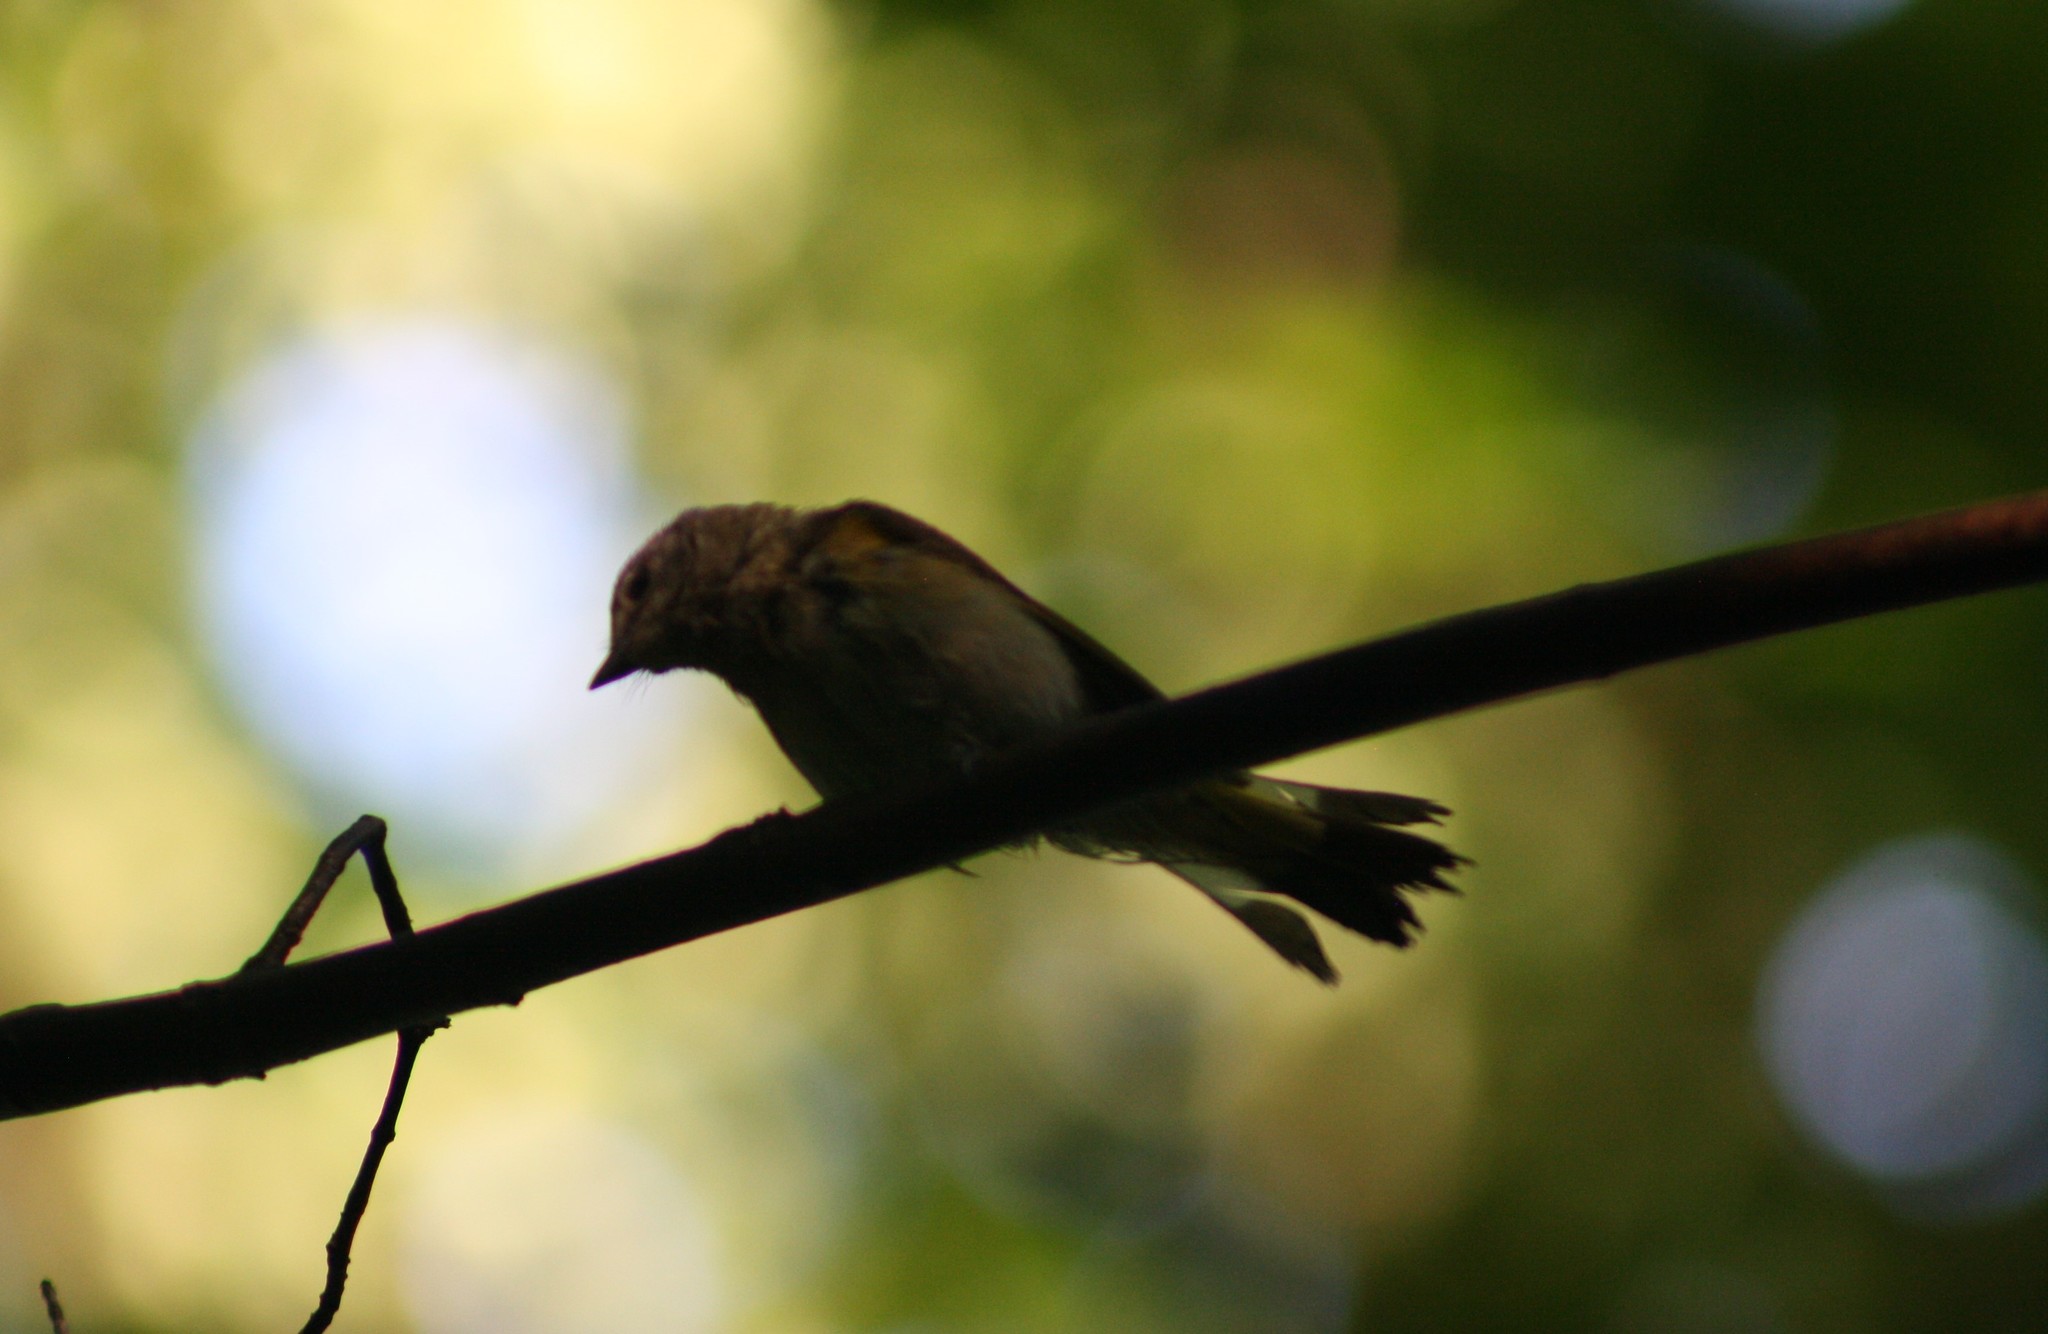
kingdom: Animalia
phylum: Chordata
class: Aves
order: Passeriformes
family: Parulidae
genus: Setophaga
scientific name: Setophaga ruticilla
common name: American redstart
